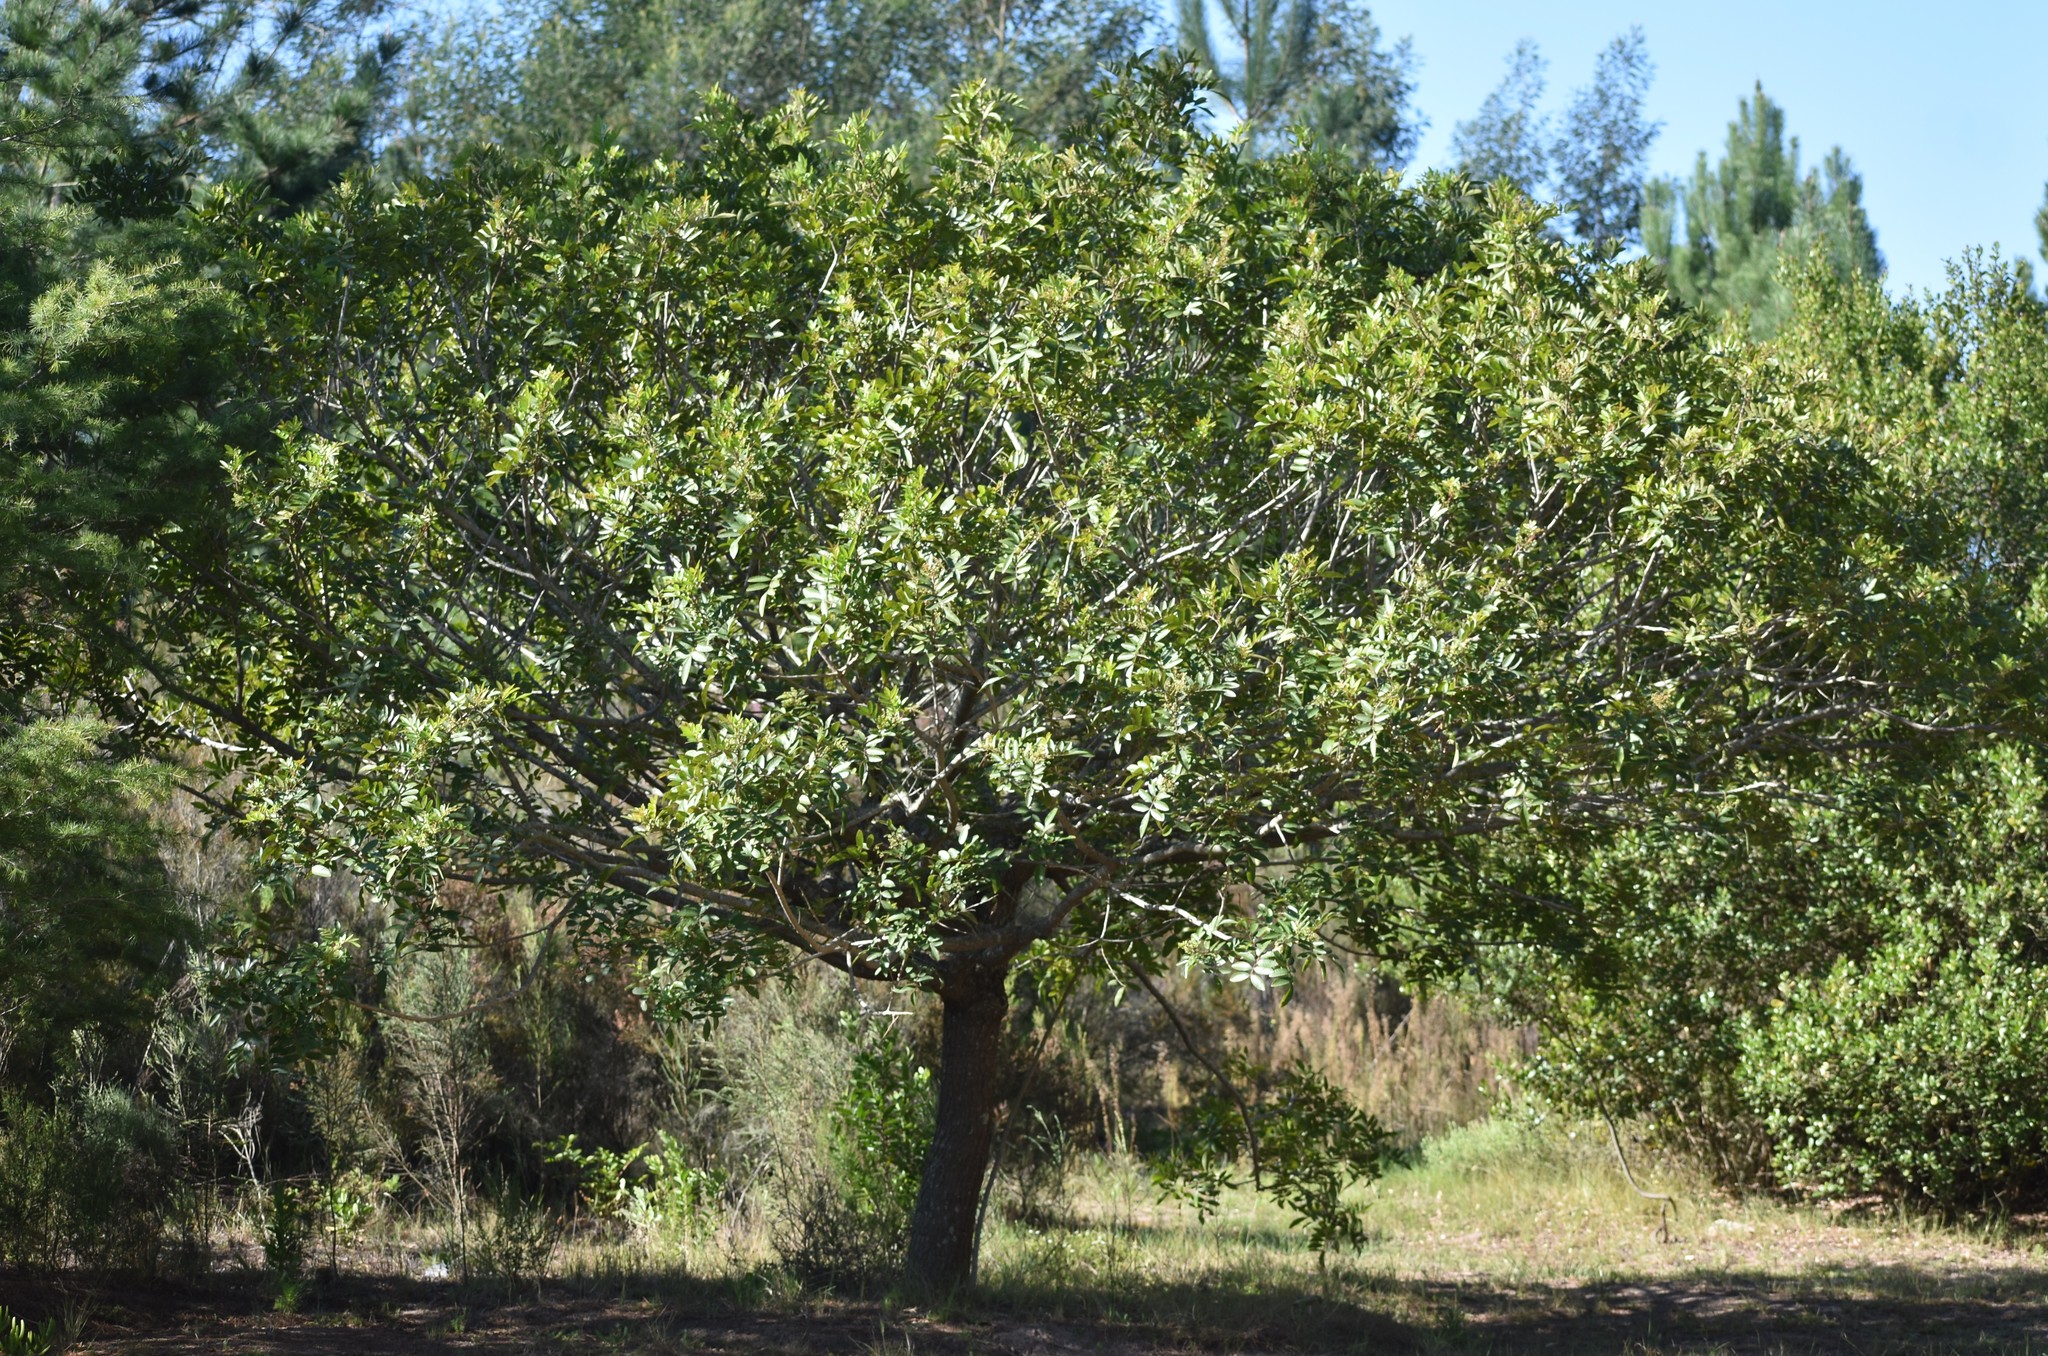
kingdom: Plantae
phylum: Tracheophyta
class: Magnoliopsida
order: Sapindales
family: Meliaceae
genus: Ekebergia
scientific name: Ekebergia capensis
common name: Cape-ash
